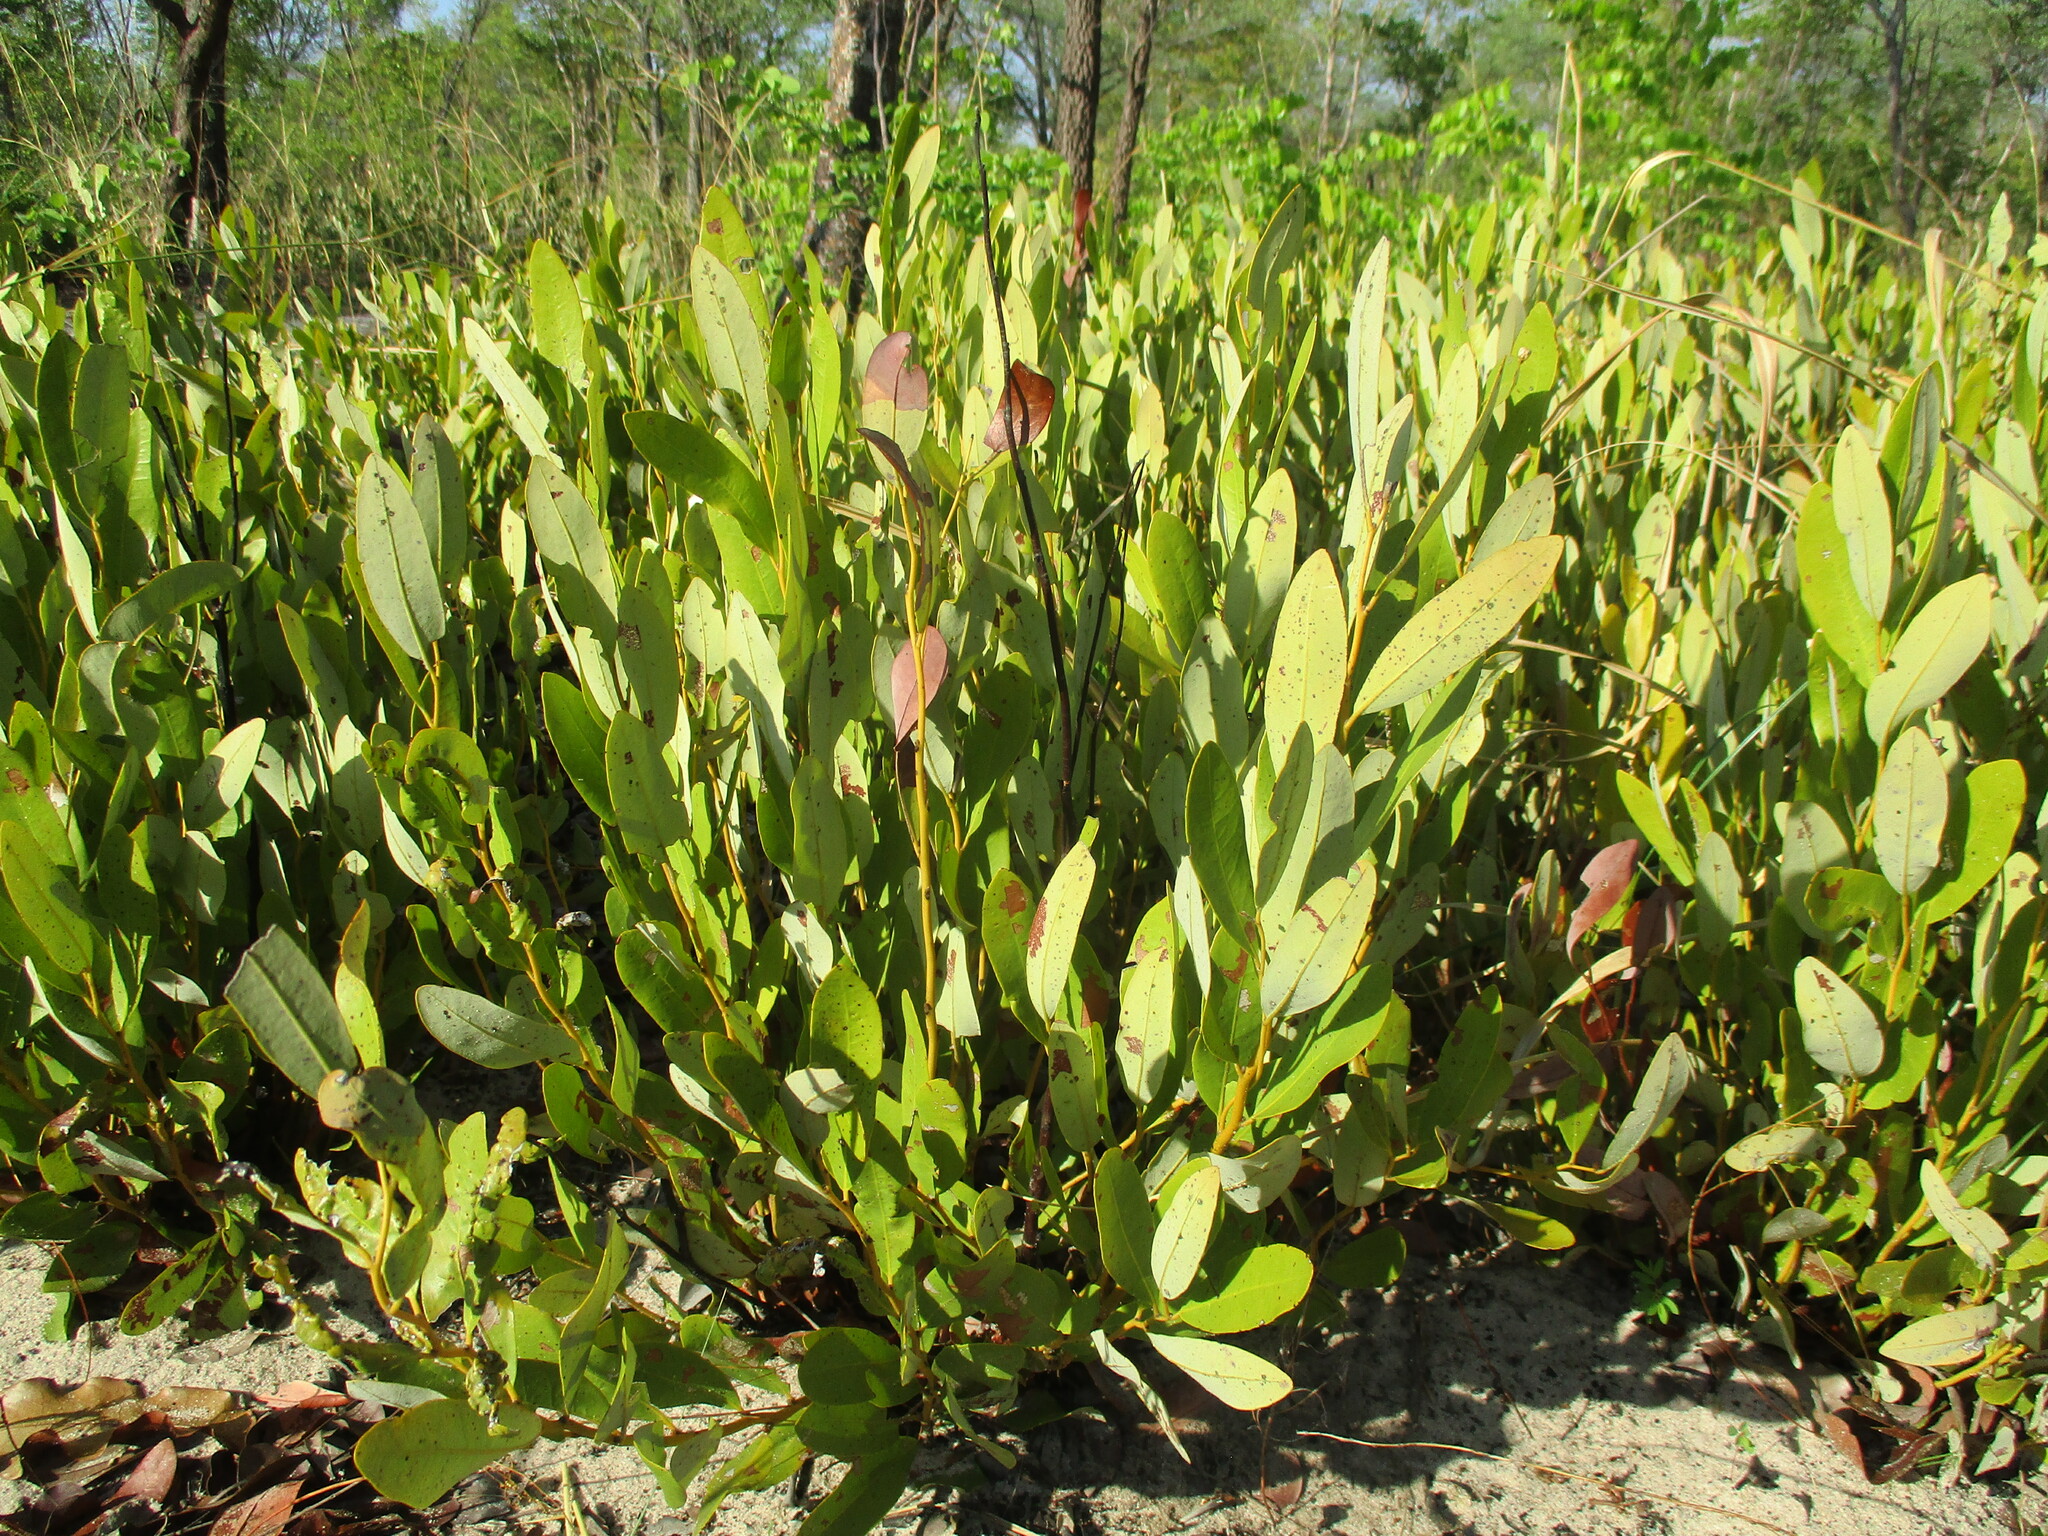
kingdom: Plantae
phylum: Tracheophyta
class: Magnoliopsida
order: Ericales
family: Ebenaceae
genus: Diospyros
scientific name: Diospyros chamaethamnus
